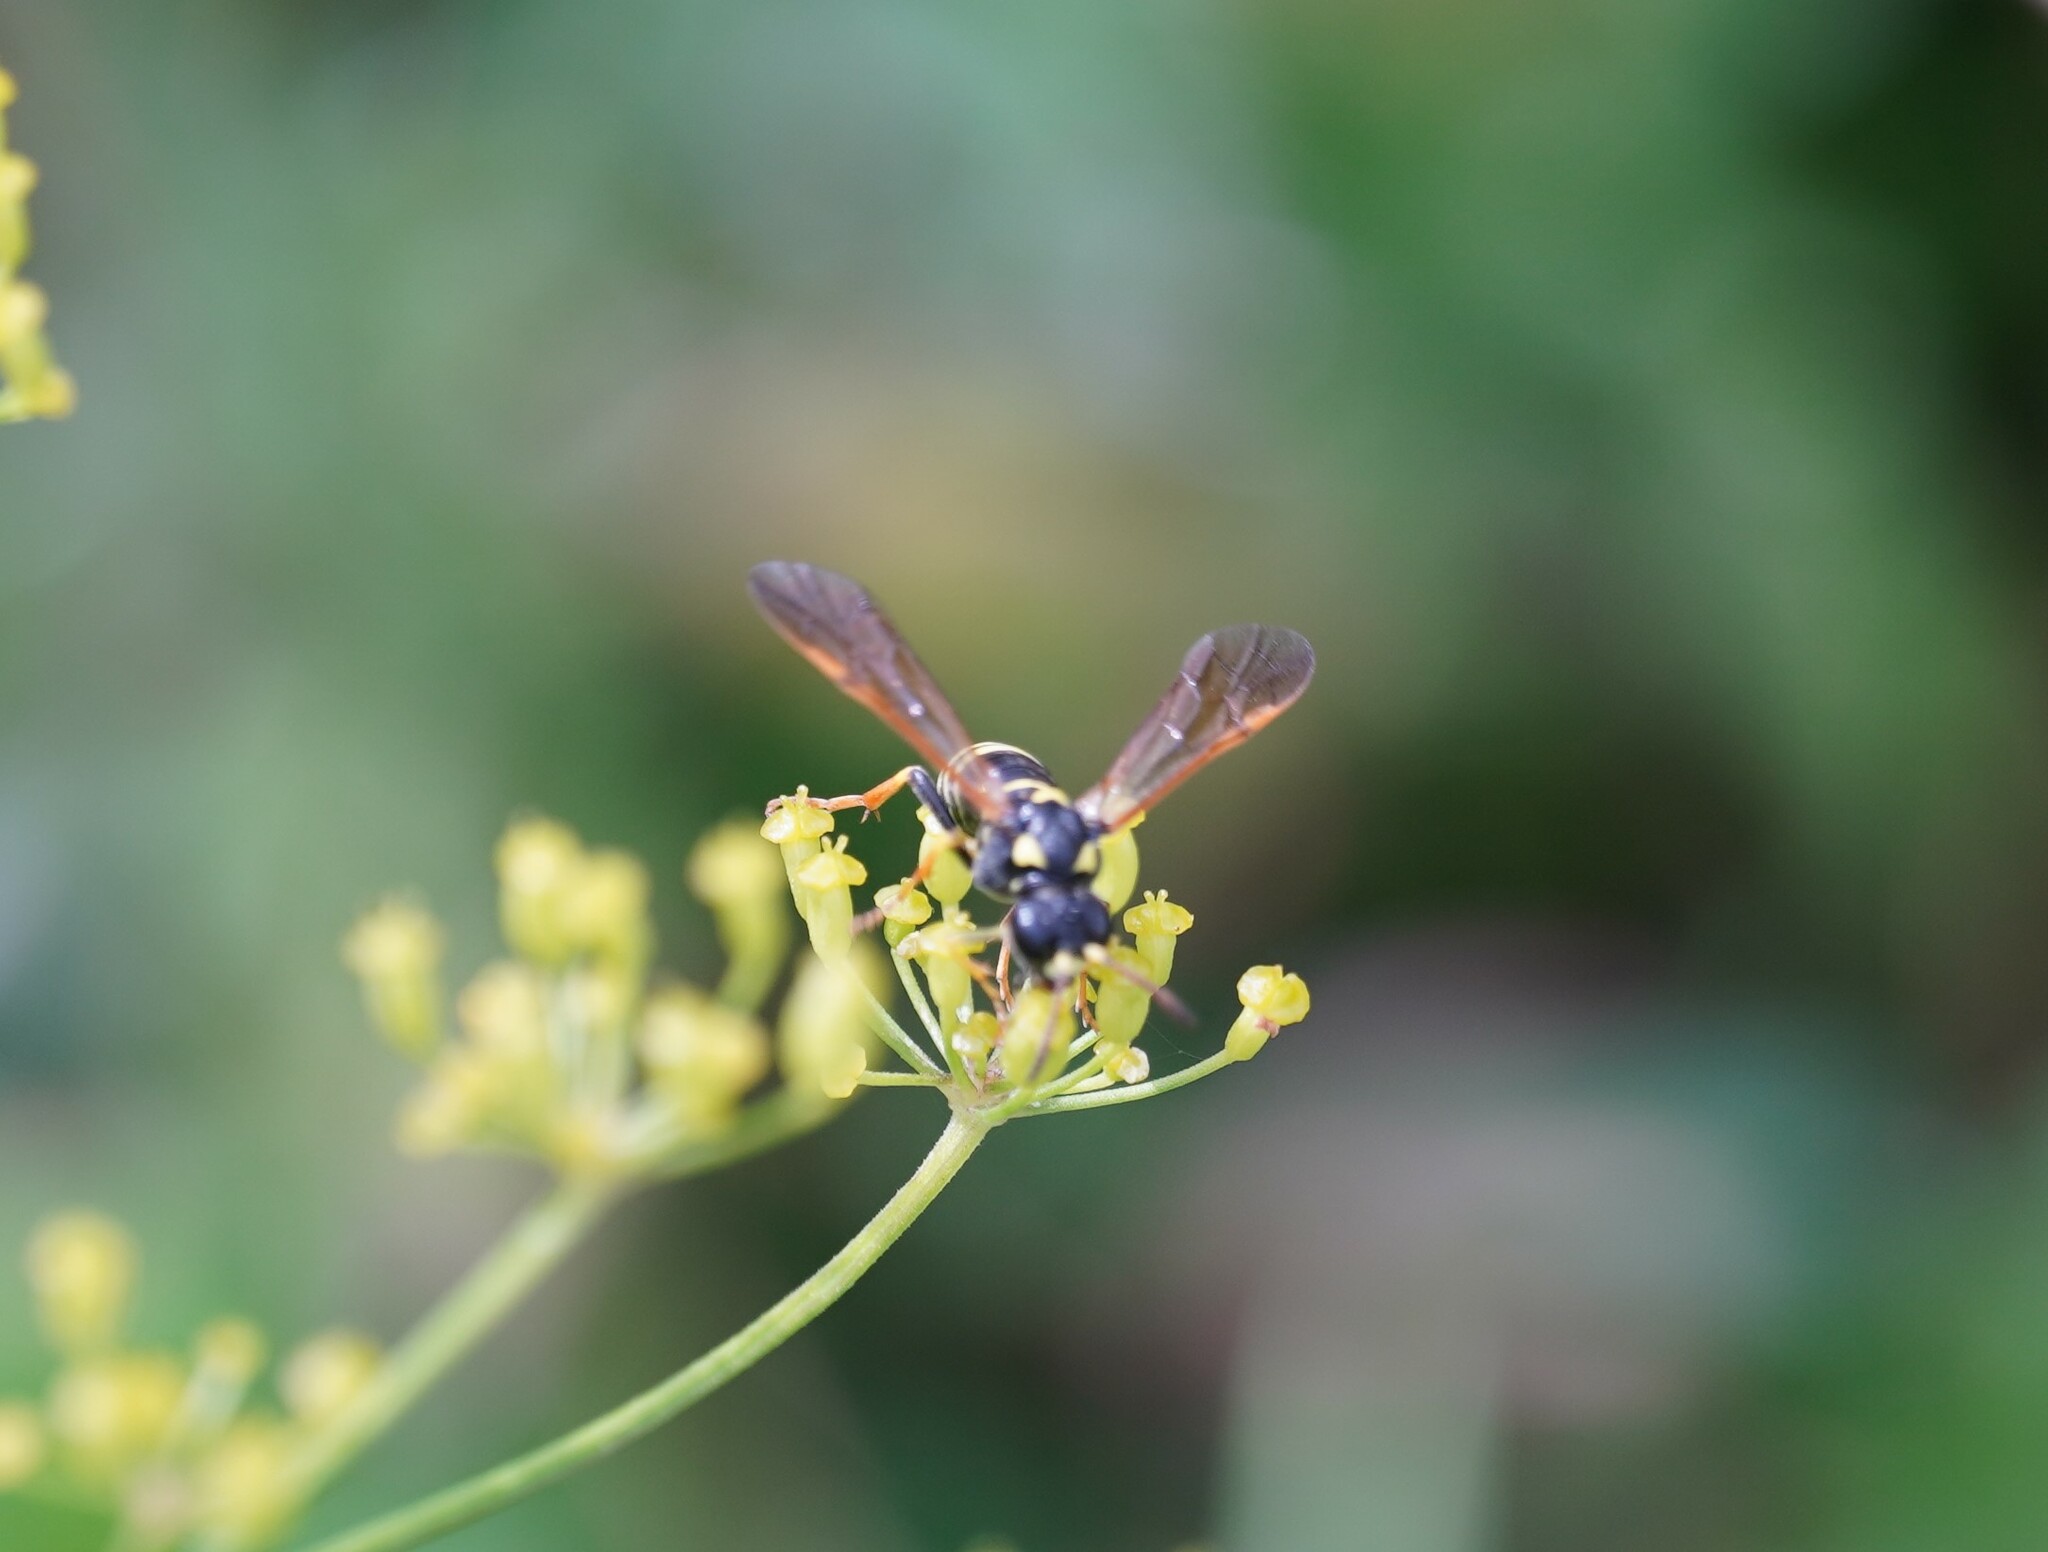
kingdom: Animalia
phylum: Arthropoda
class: Insecta
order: Hymenoptera
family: Tenthredinidae
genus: Tenthredo
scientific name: Tenthredo omissa
